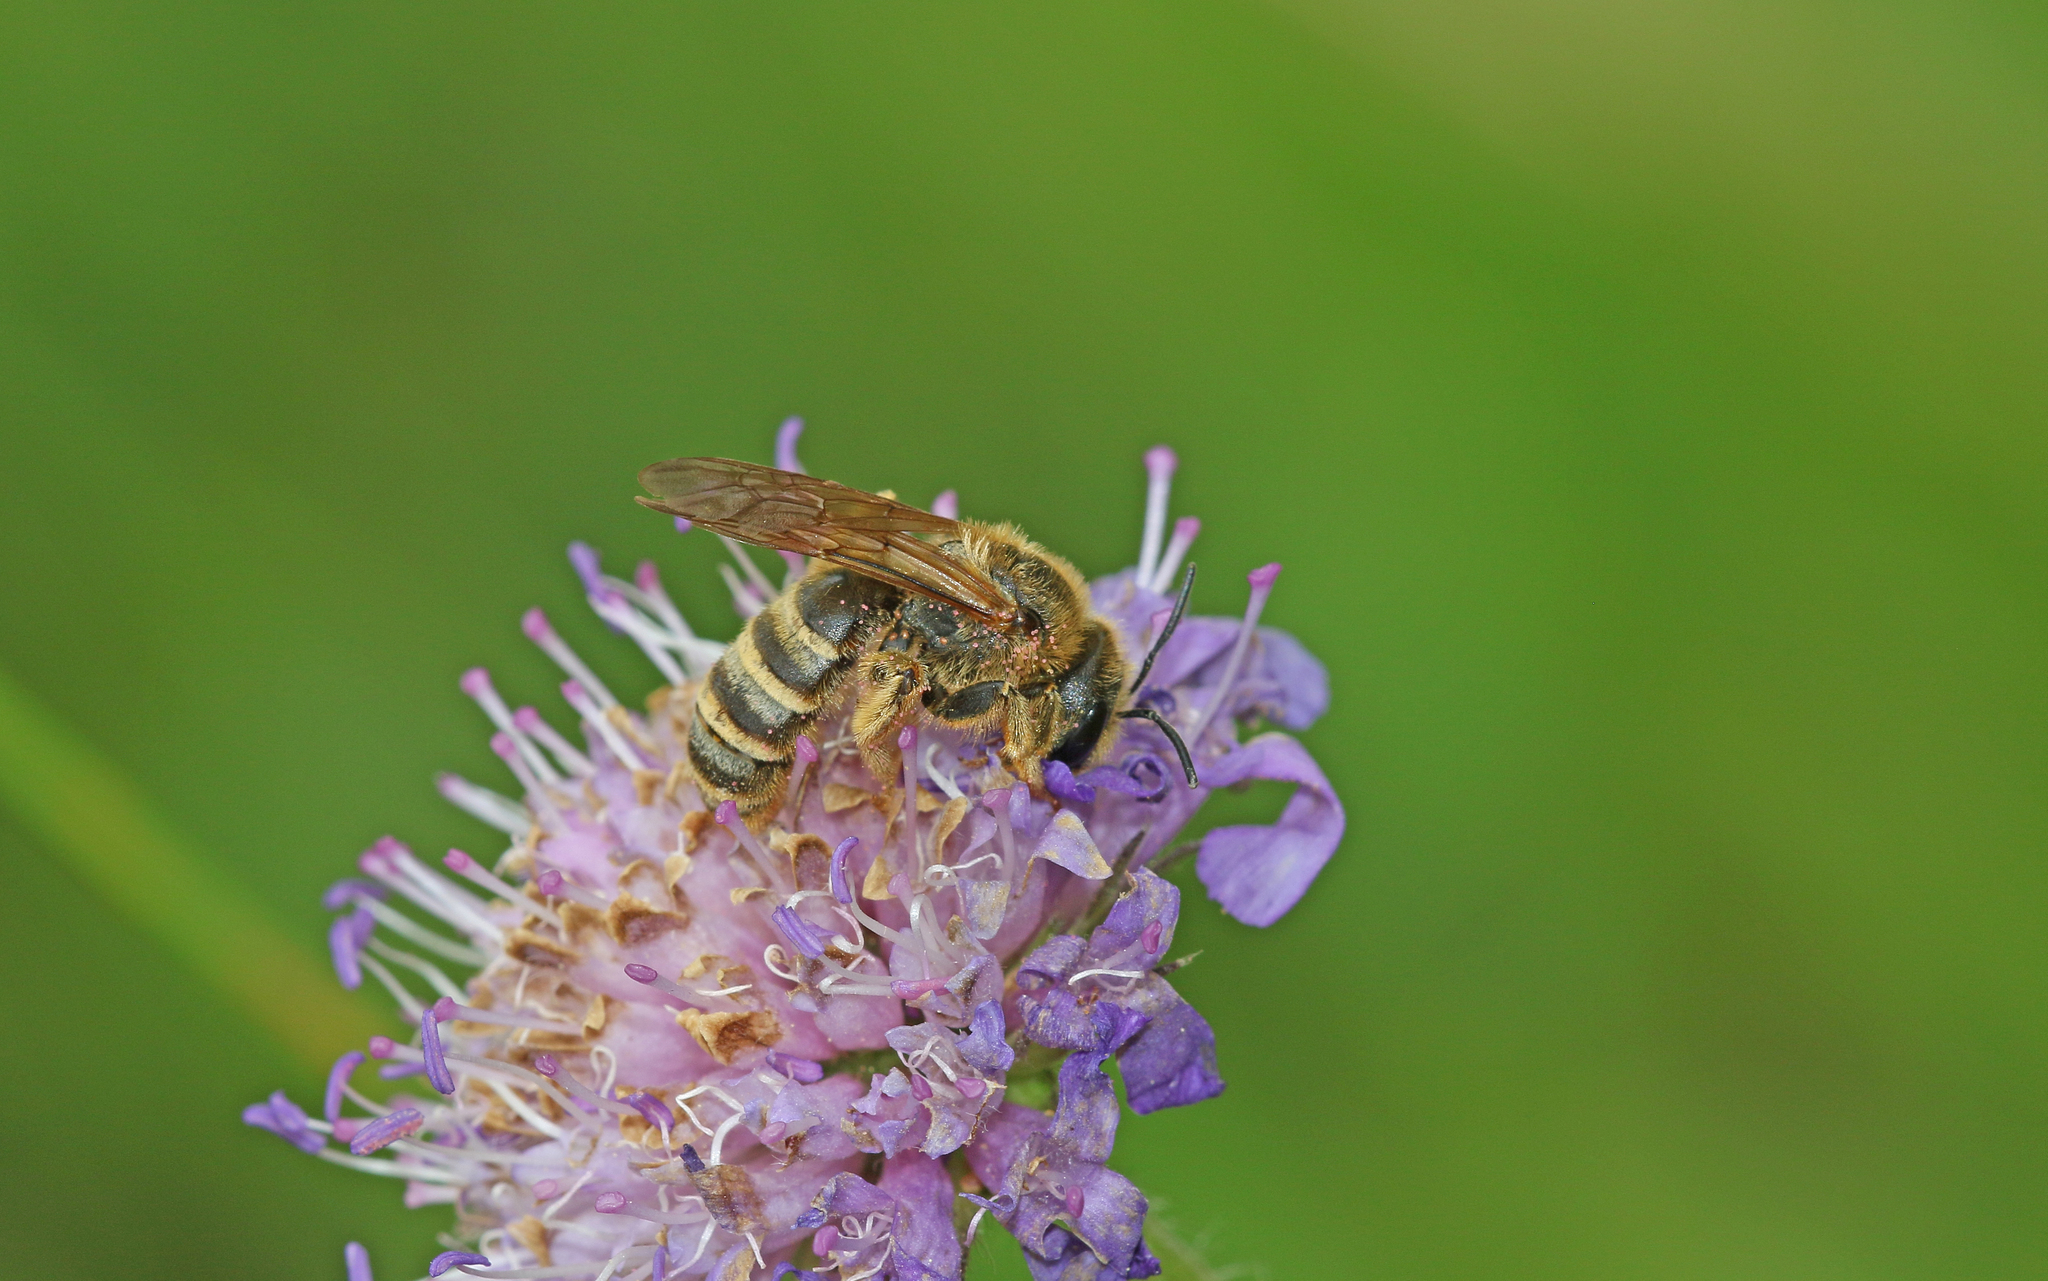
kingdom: Animalia
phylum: Arthropoda
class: Insecta
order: Hymenoptera
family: Halictidae
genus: Halictus
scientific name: Halictus scabiosae
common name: Great banded furrow bee
